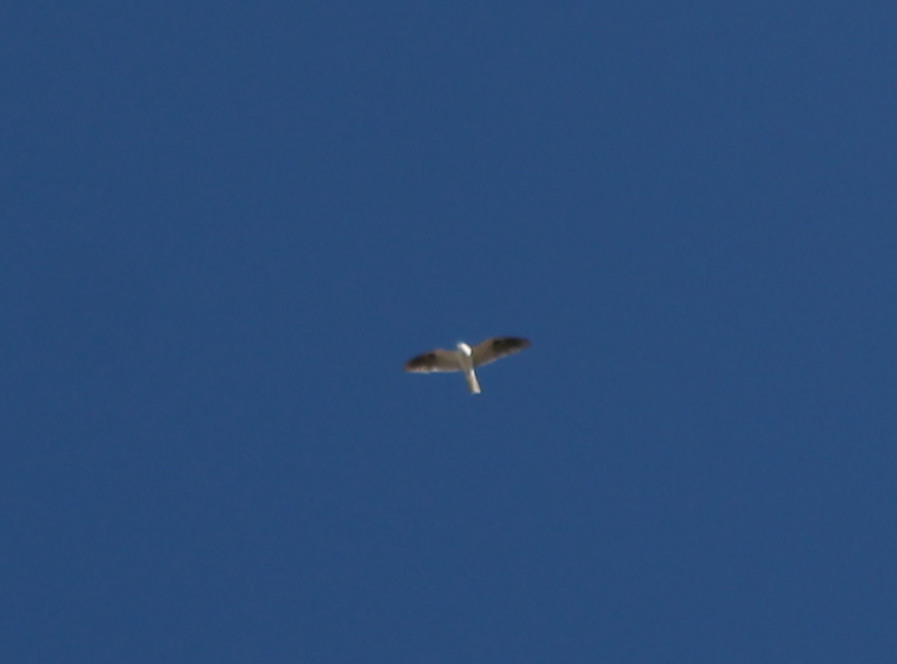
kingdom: Animalia
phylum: Chordata
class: Aves
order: Accipitriformes
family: Accipitridae
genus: Elanus
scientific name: Elanus leucurus
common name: White-tailed kite
